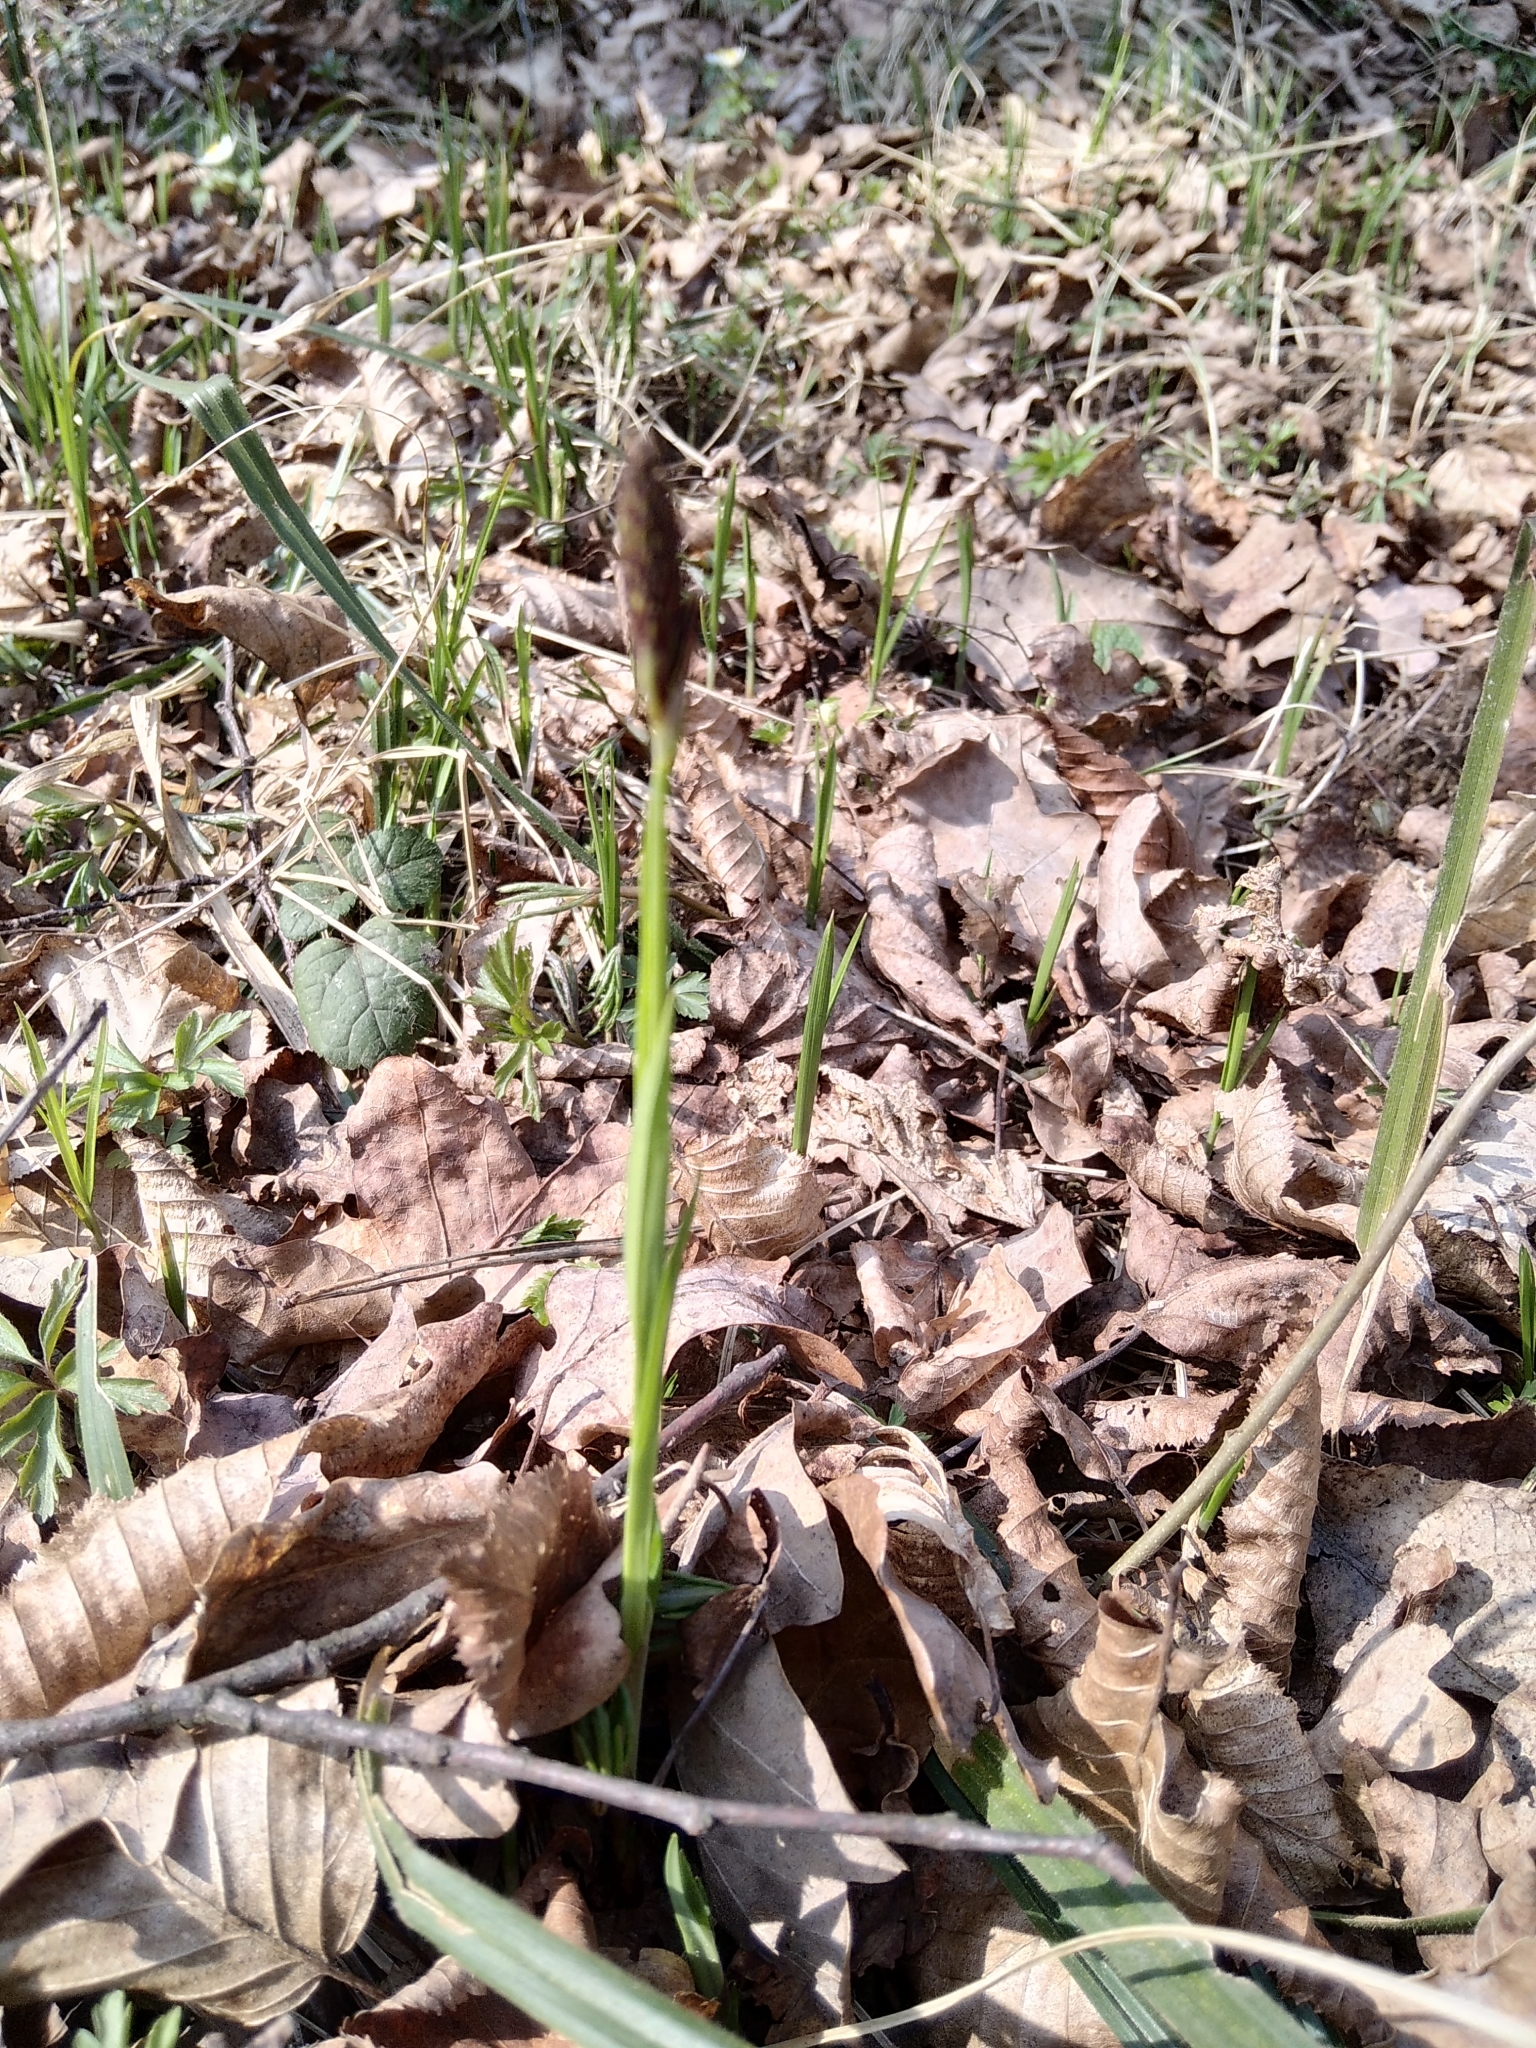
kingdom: Plantae
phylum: Tracheophyta
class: Liliopsida
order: Poales
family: Cyperaceae
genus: Carex
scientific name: Carex pilosa
